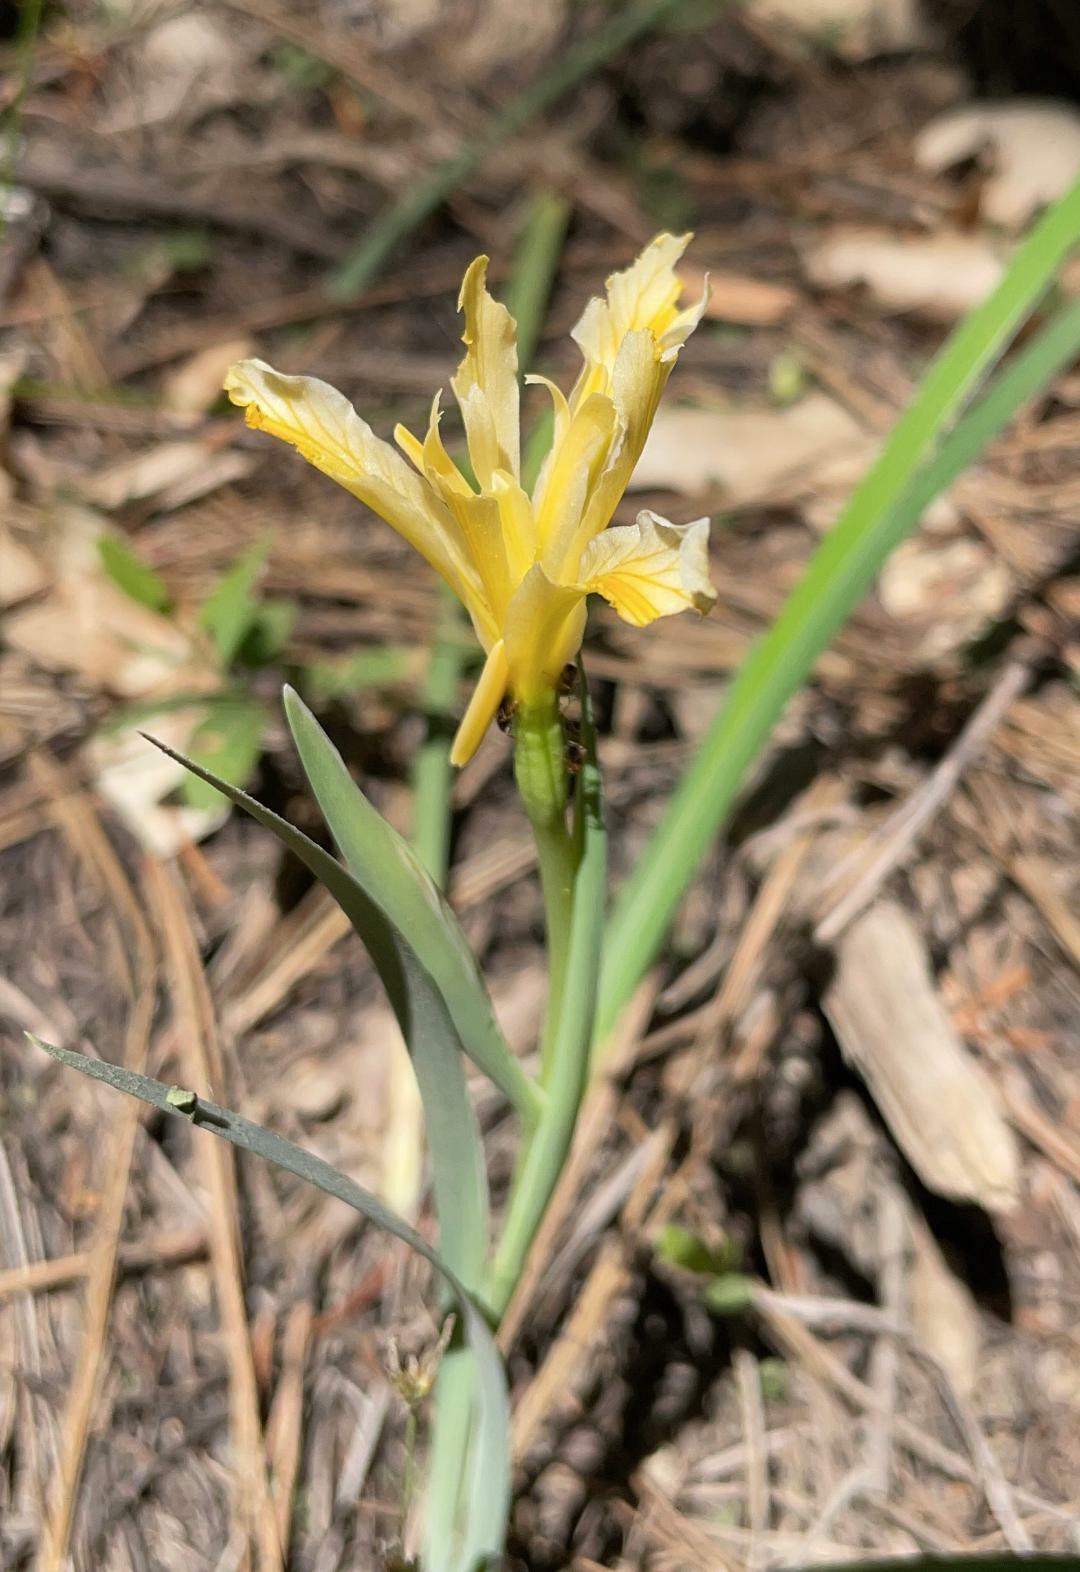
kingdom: Plantae
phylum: Tracheophyta
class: Liliopsida
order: Asparagales
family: Iridaceae
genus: Iris
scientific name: Iris hartwegii
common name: Sierra iris
